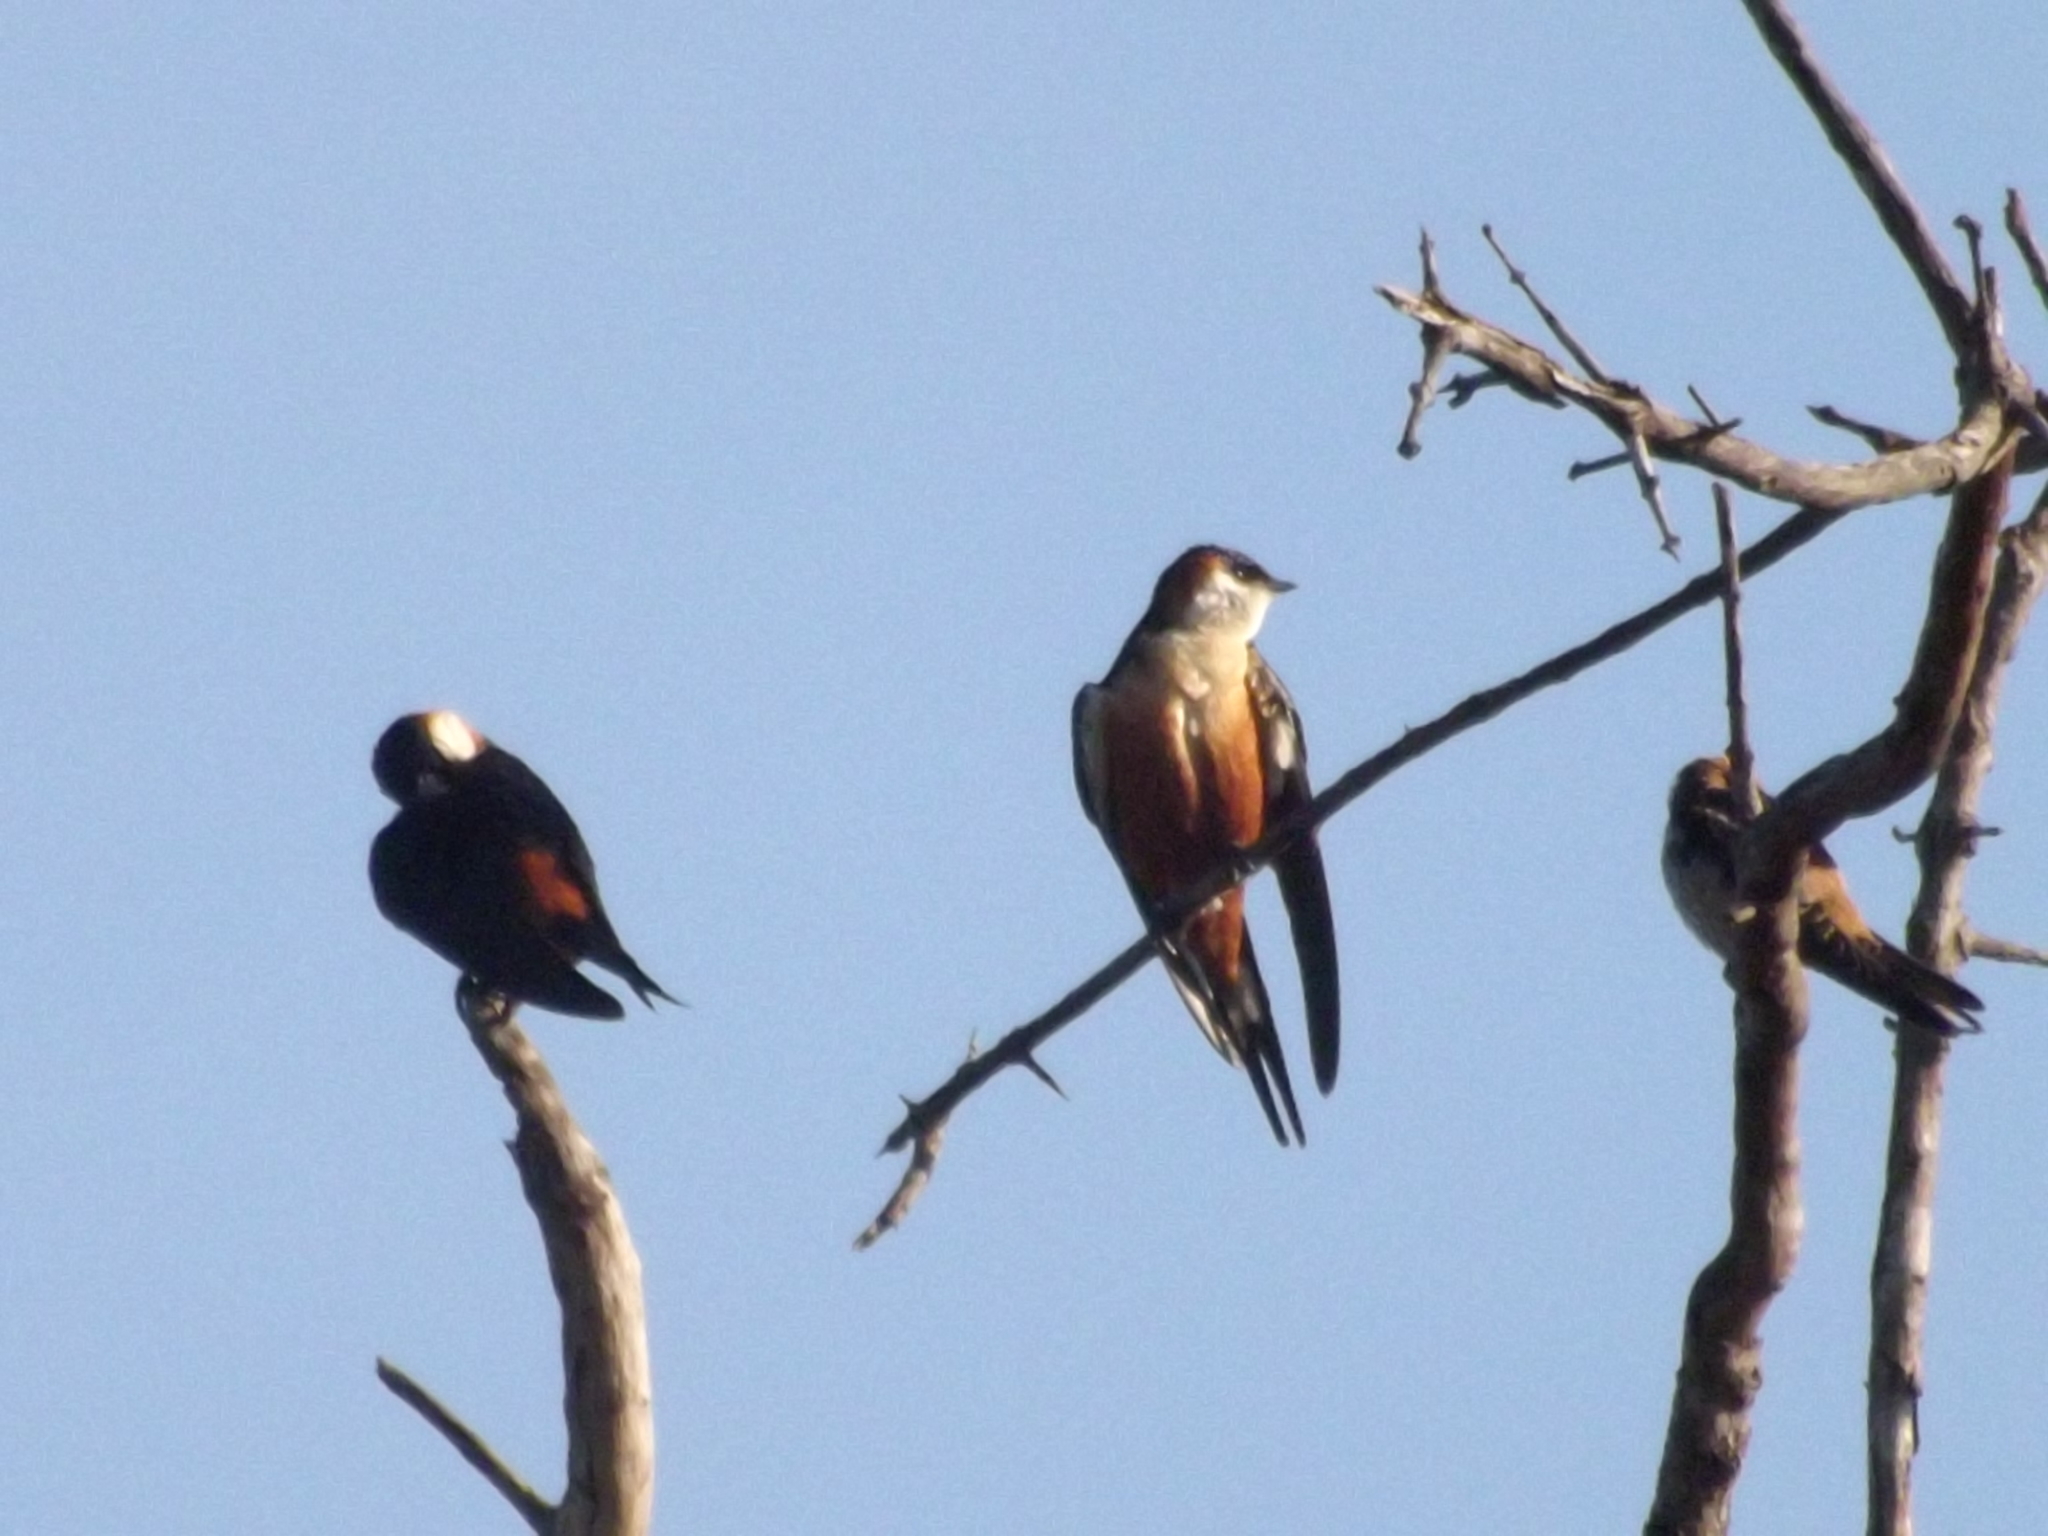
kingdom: Animalia
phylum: Chordata
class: Aves
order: Passeriformes
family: Hirundinidae
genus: Cecropis
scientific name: Cecropis senegalensis
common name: Mosque swallow
